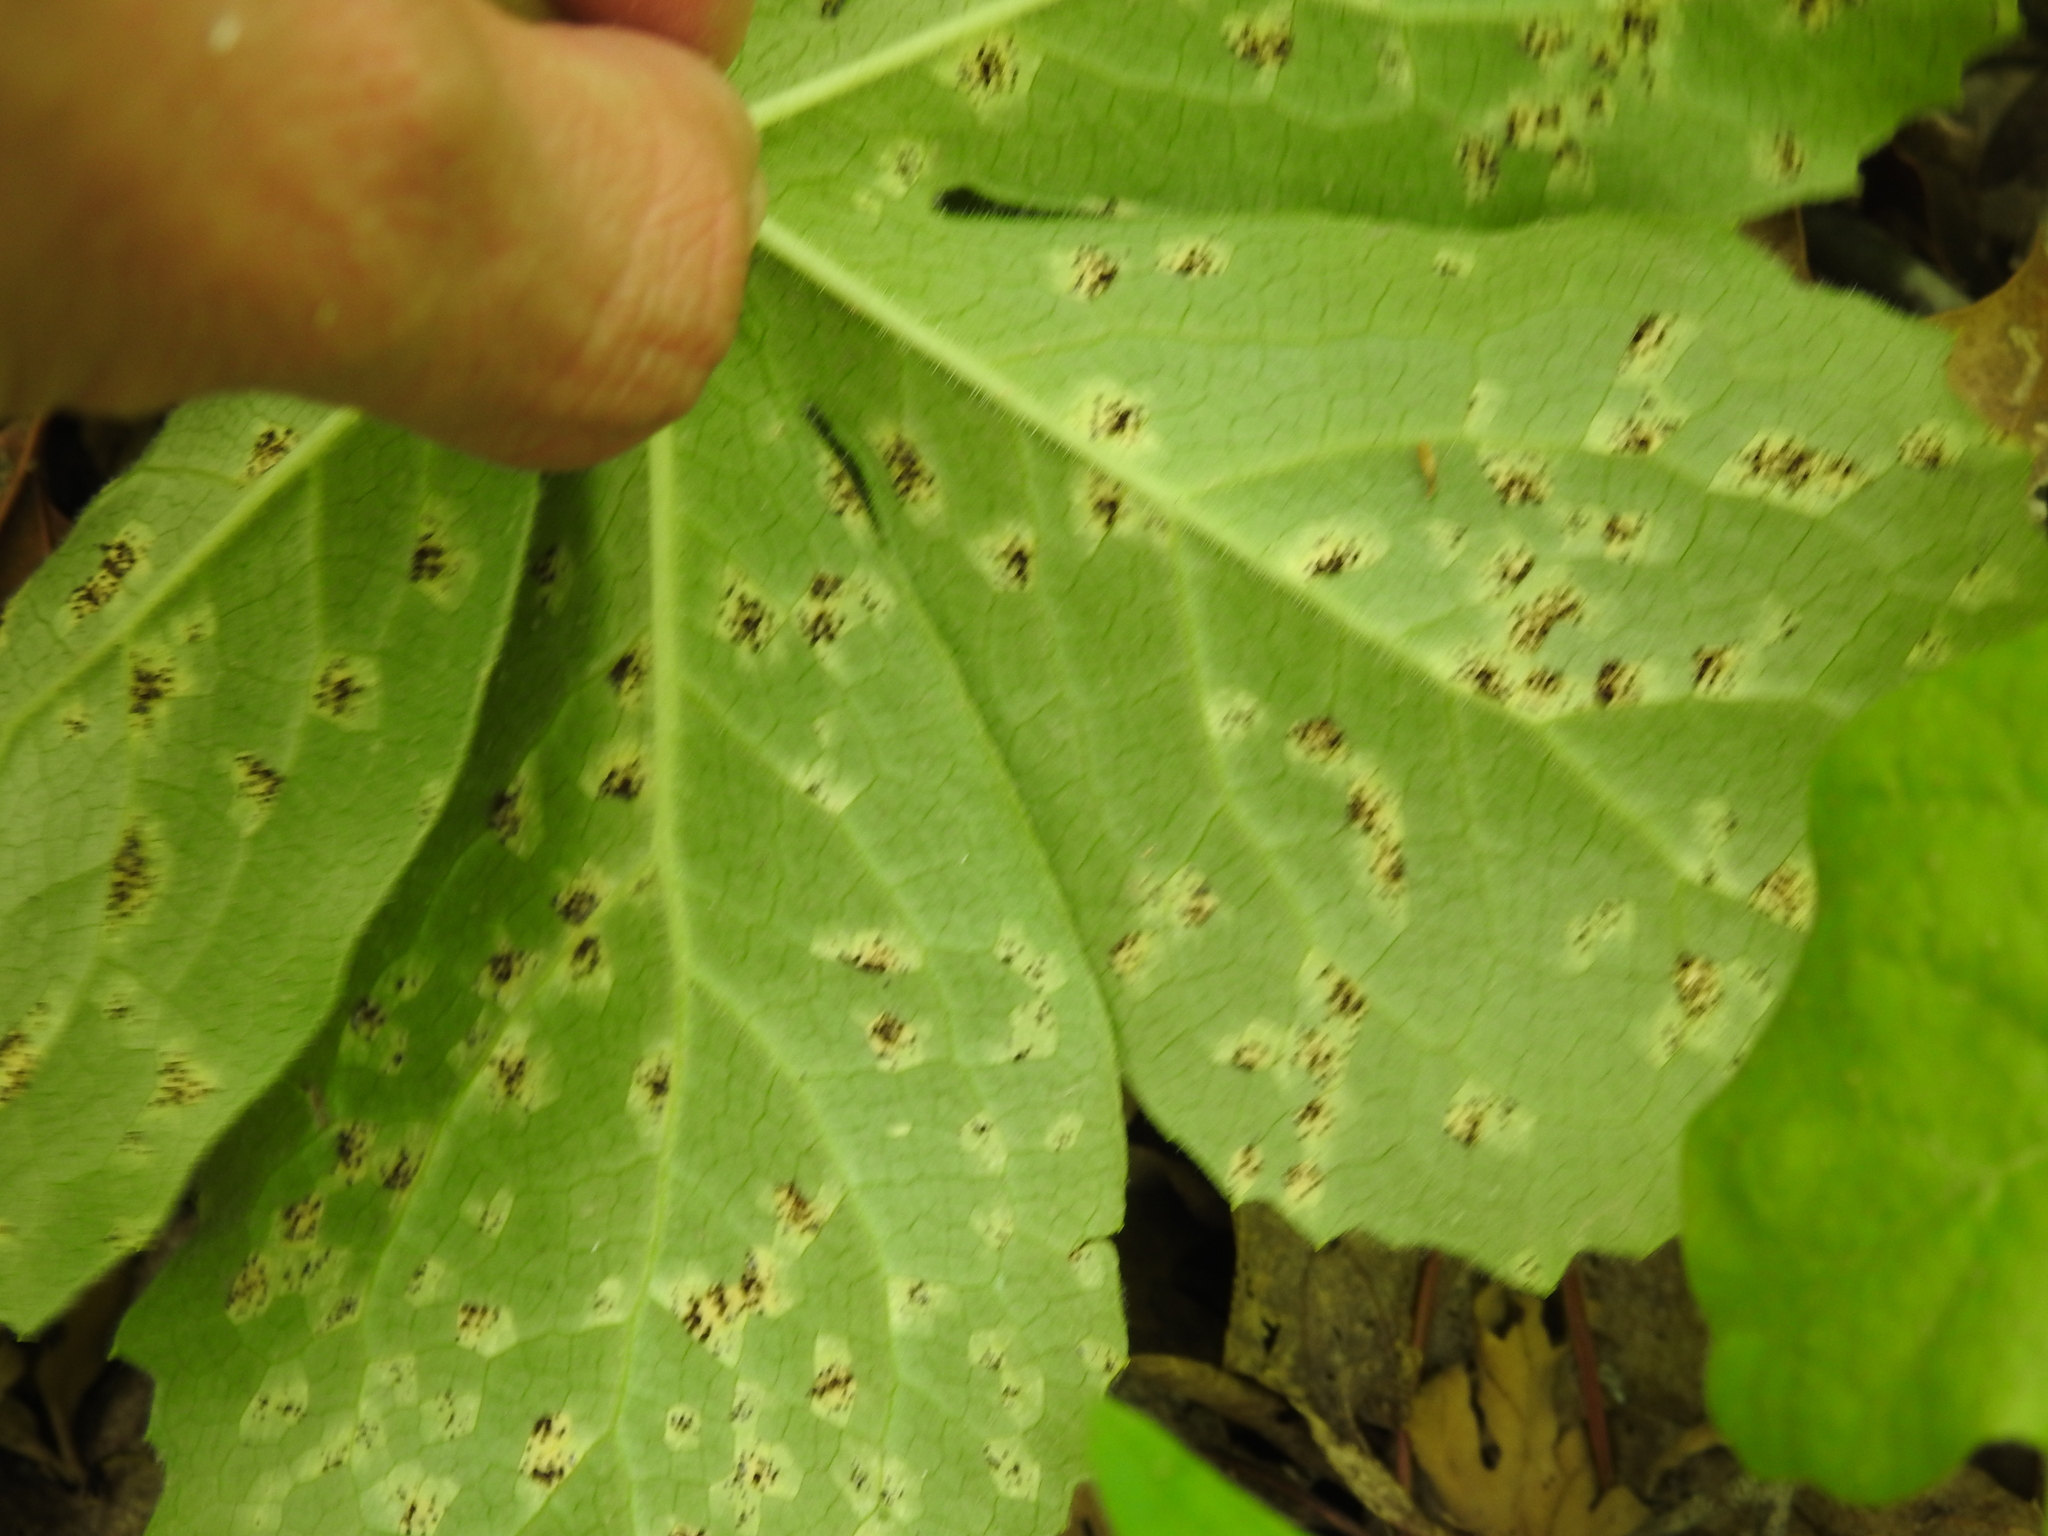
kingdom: Fungi
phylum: Basidiomycota
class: Pucciniomycetes
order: Pucciniales
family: Pucciniaceae
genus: Puccinia
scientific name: Puccinia podophylli
